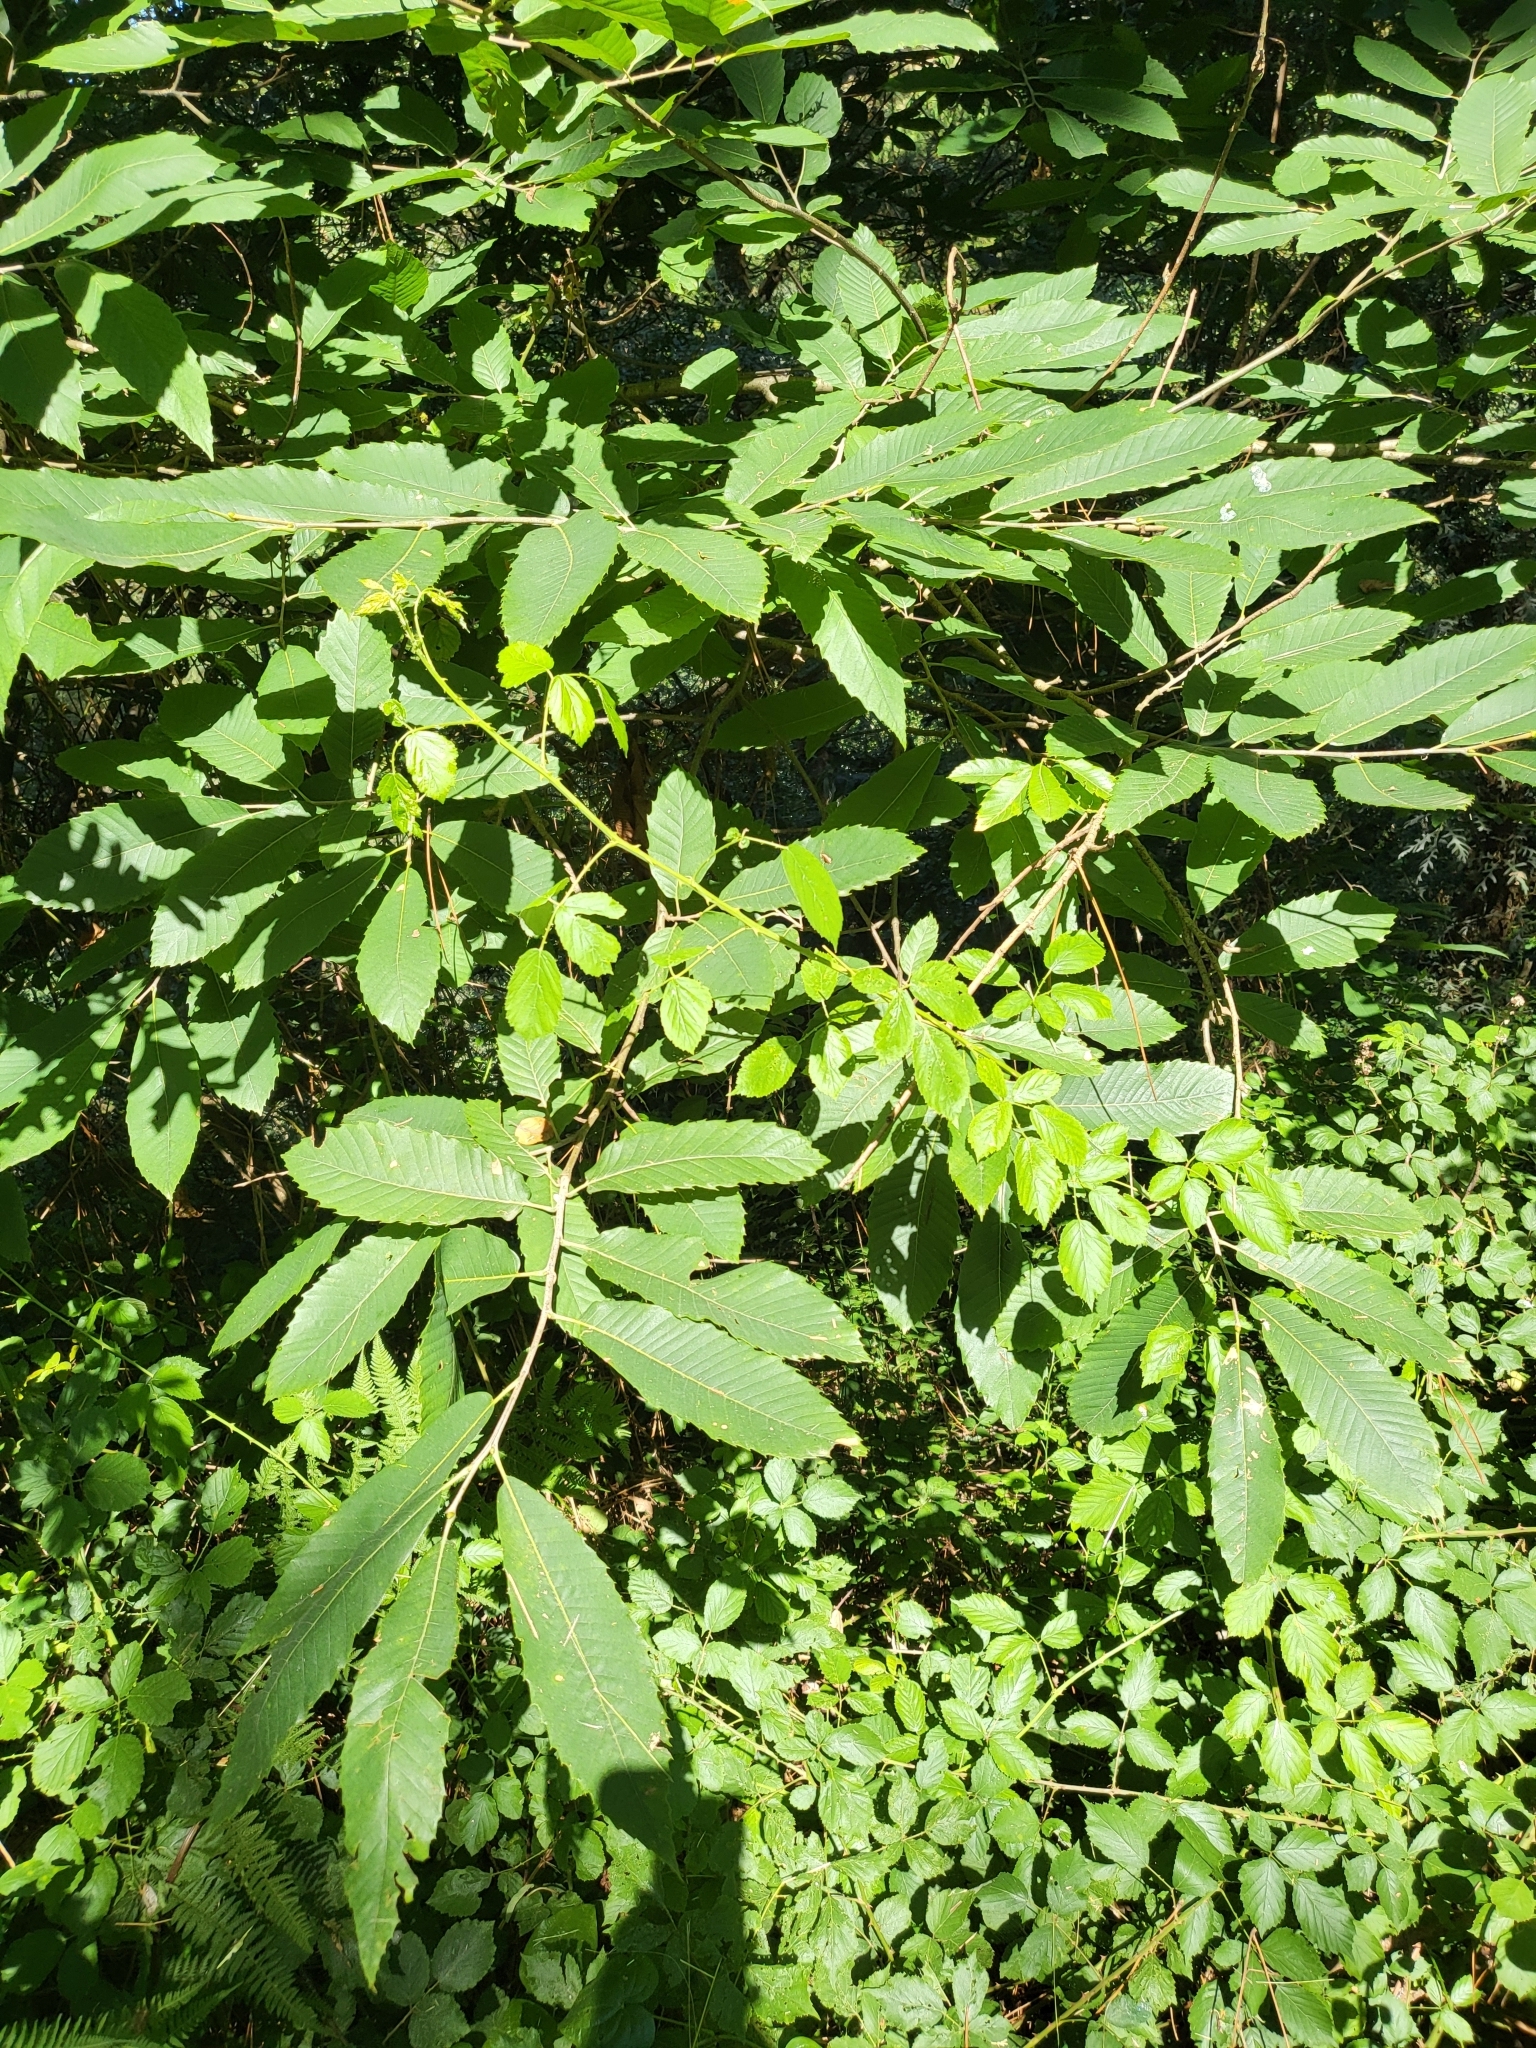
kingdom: Plantae
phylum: Tracheophyta
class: Magnoliopsida
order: Fagales
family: Fagaceae
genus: Castanea
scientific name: Castanea sativa
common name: Sweet chestnut
